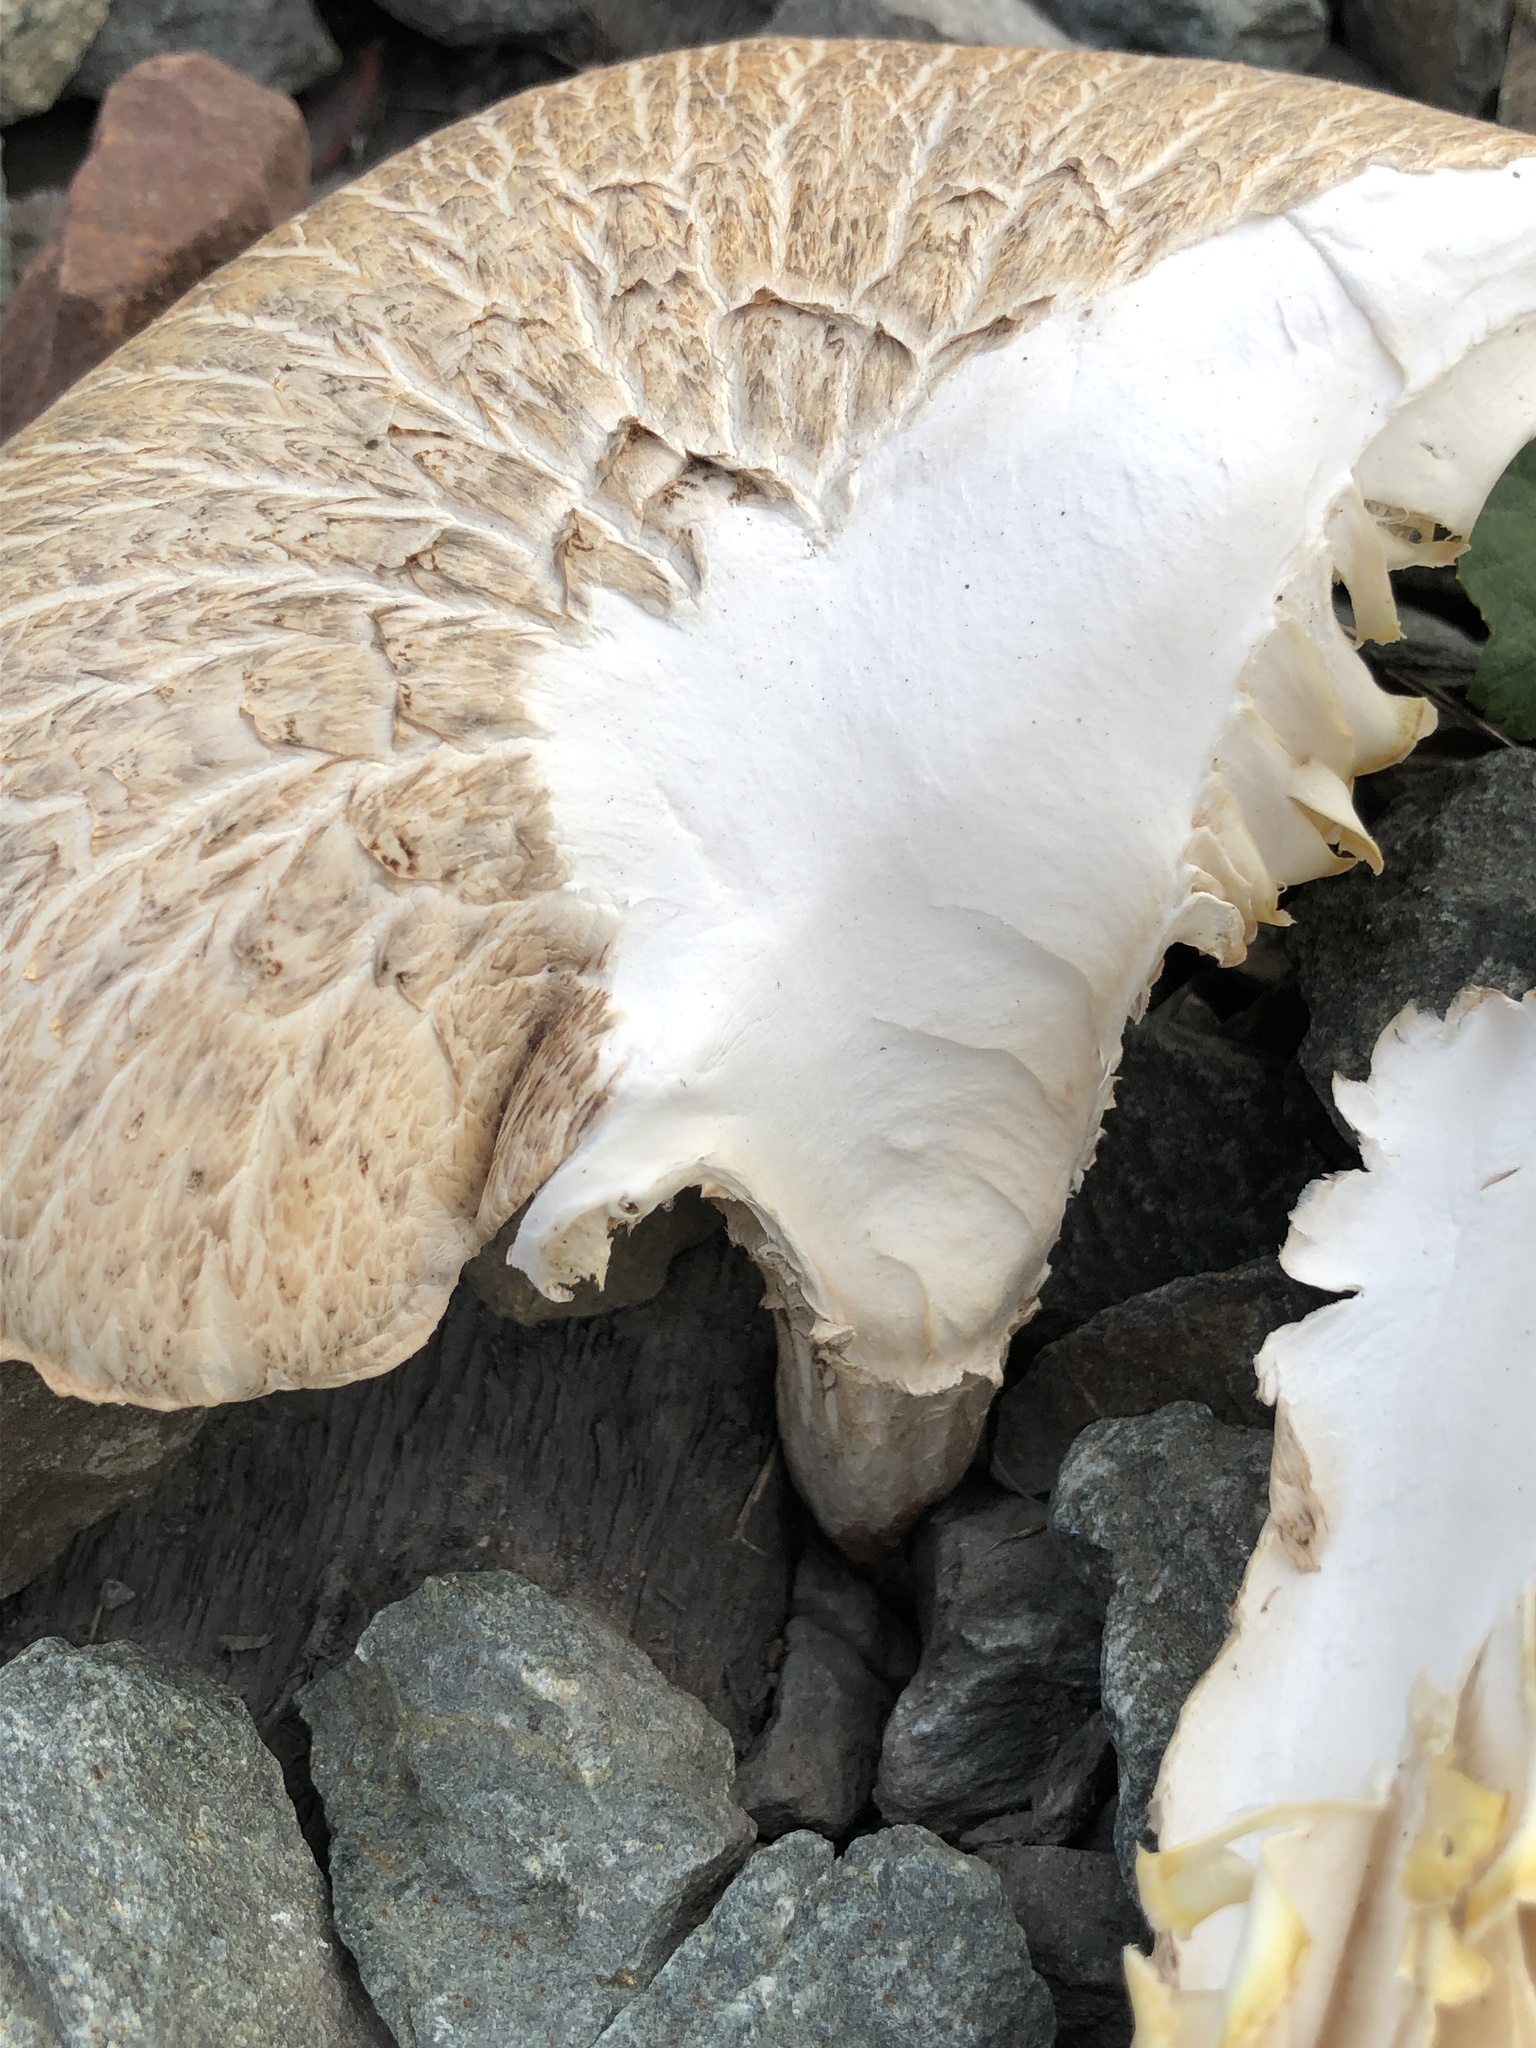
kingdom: Fungi
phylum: Basidiomycota
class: Agaricomycetes
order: Gloeophyllales
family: Gloeophyllaceae
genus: Neolentinus
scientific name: Neolentinus lepideus
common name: Scaly sawgill
